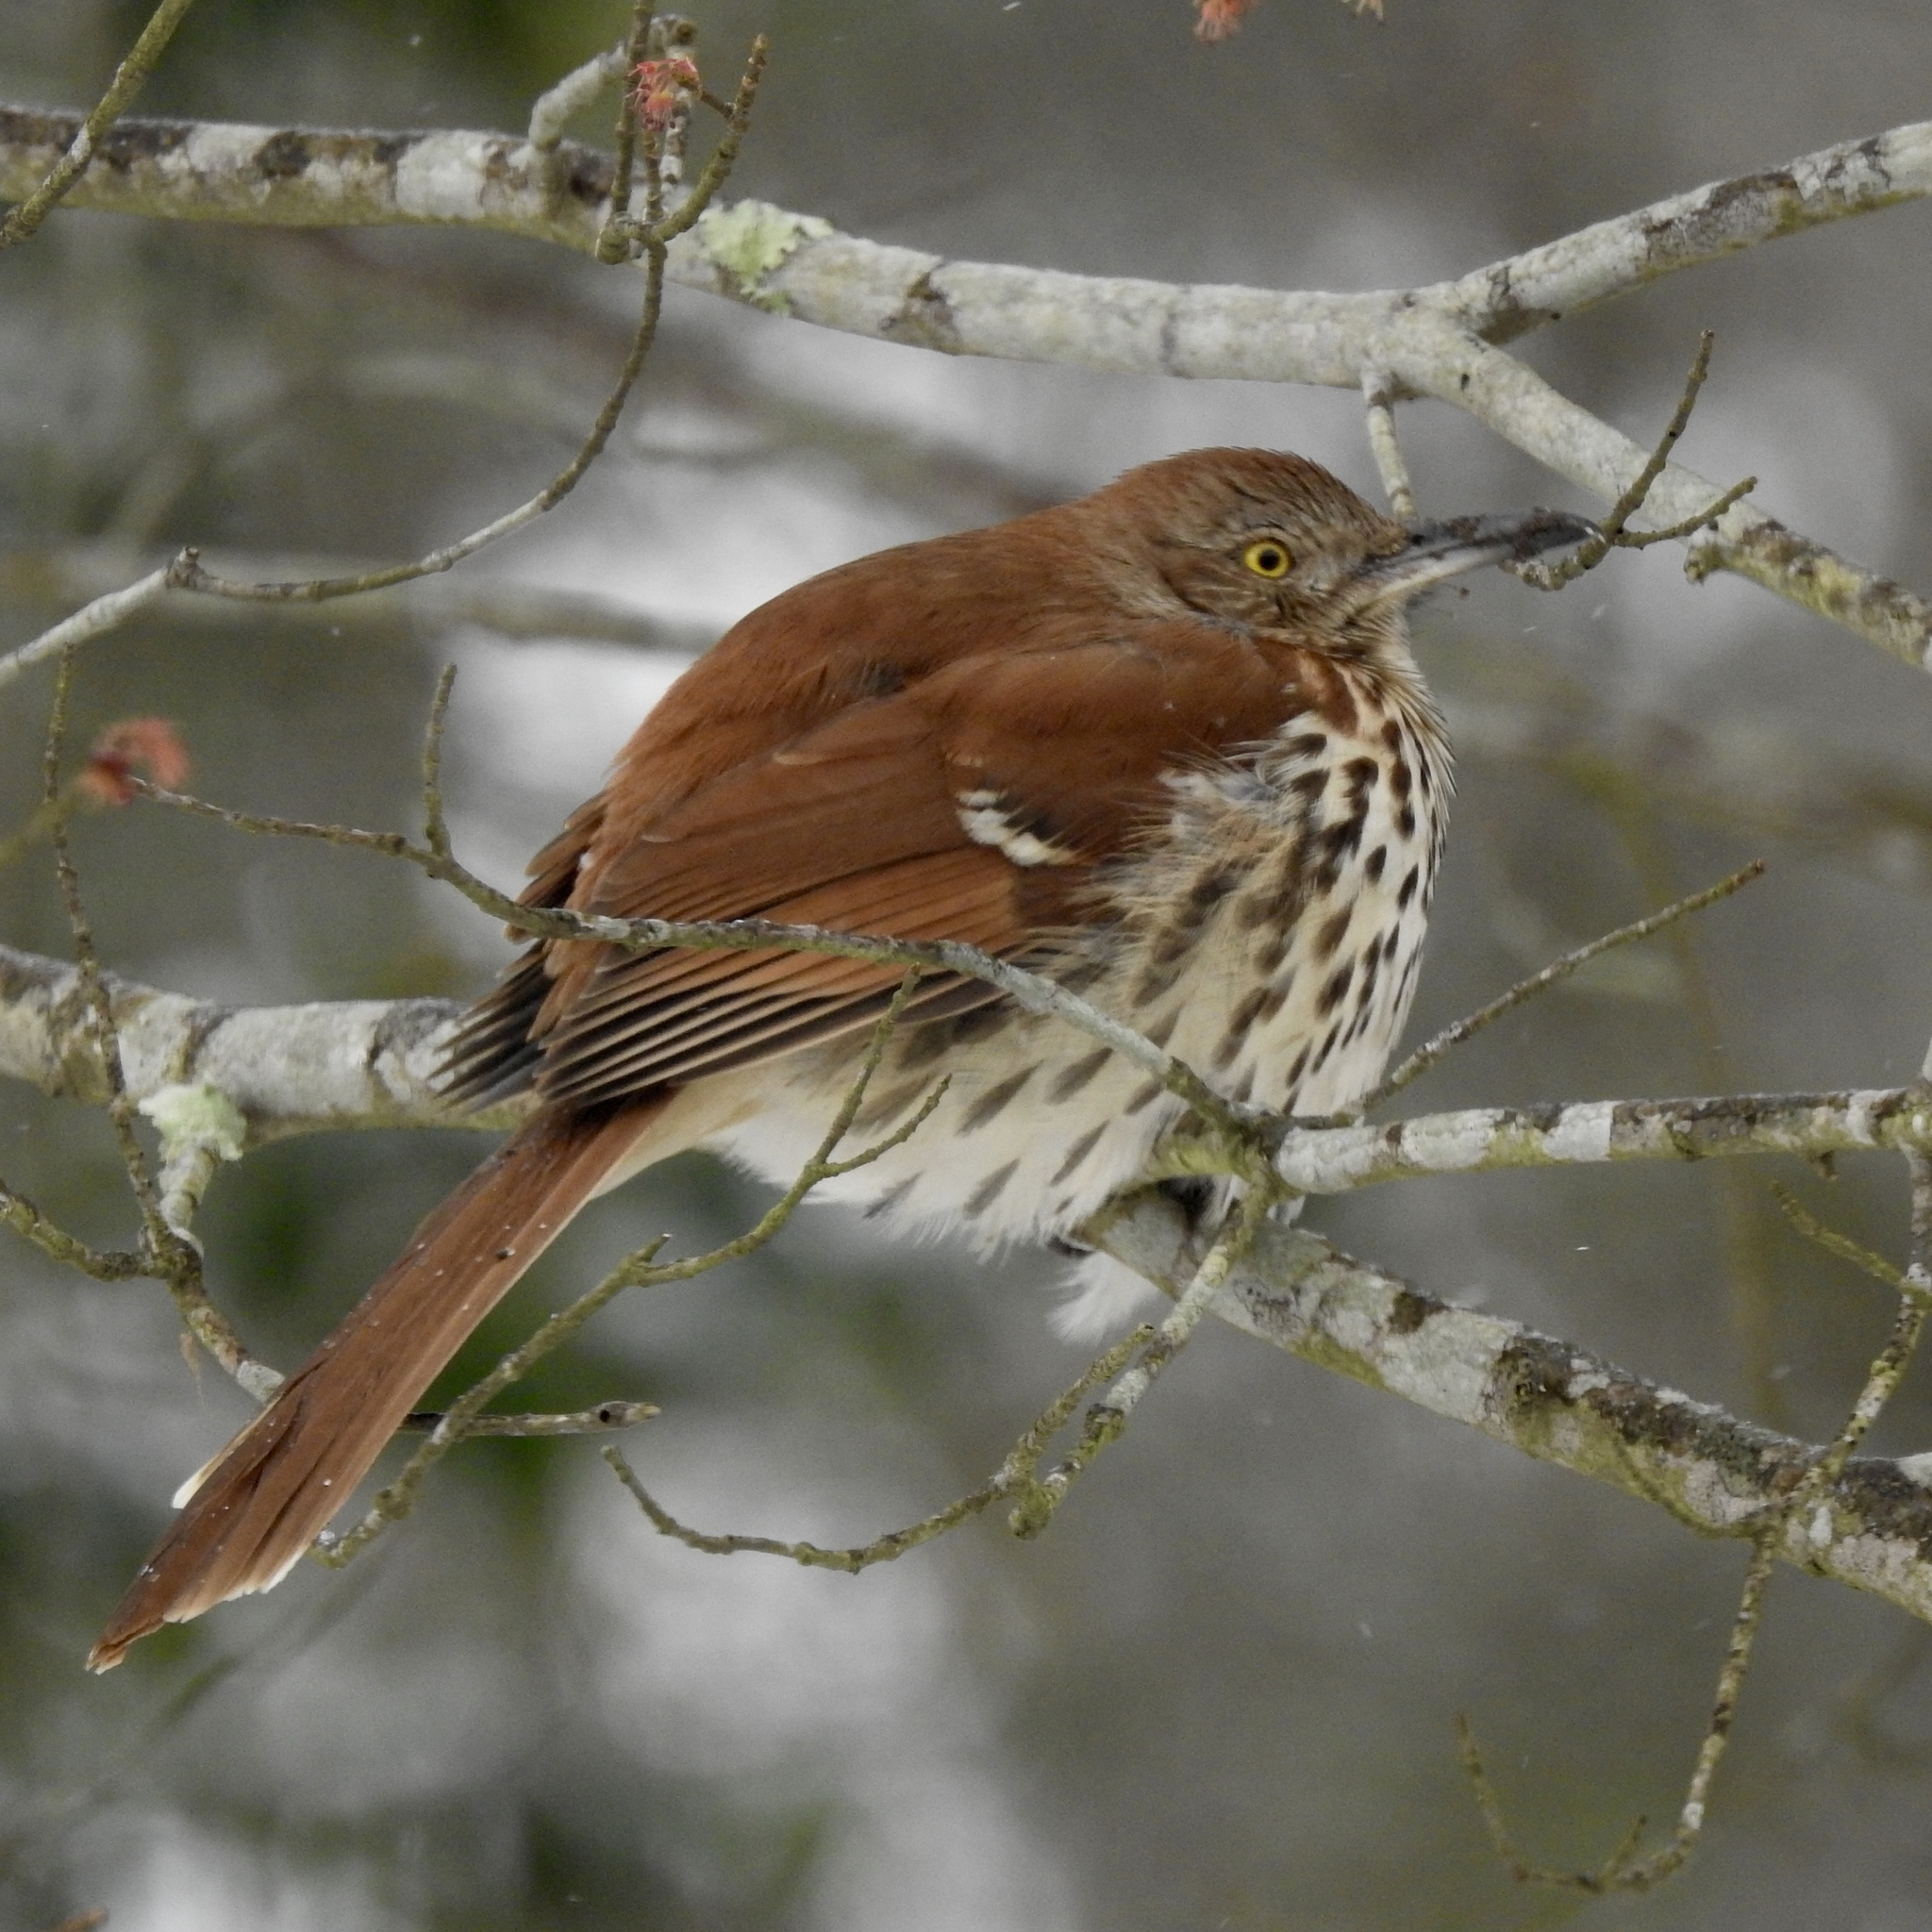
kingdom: Animalia
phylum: Chordata
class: Aves
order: Passeriformes
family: Mimidae
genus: Toxostoma
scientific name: Toxostoma rufum
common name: Brown thrasher
